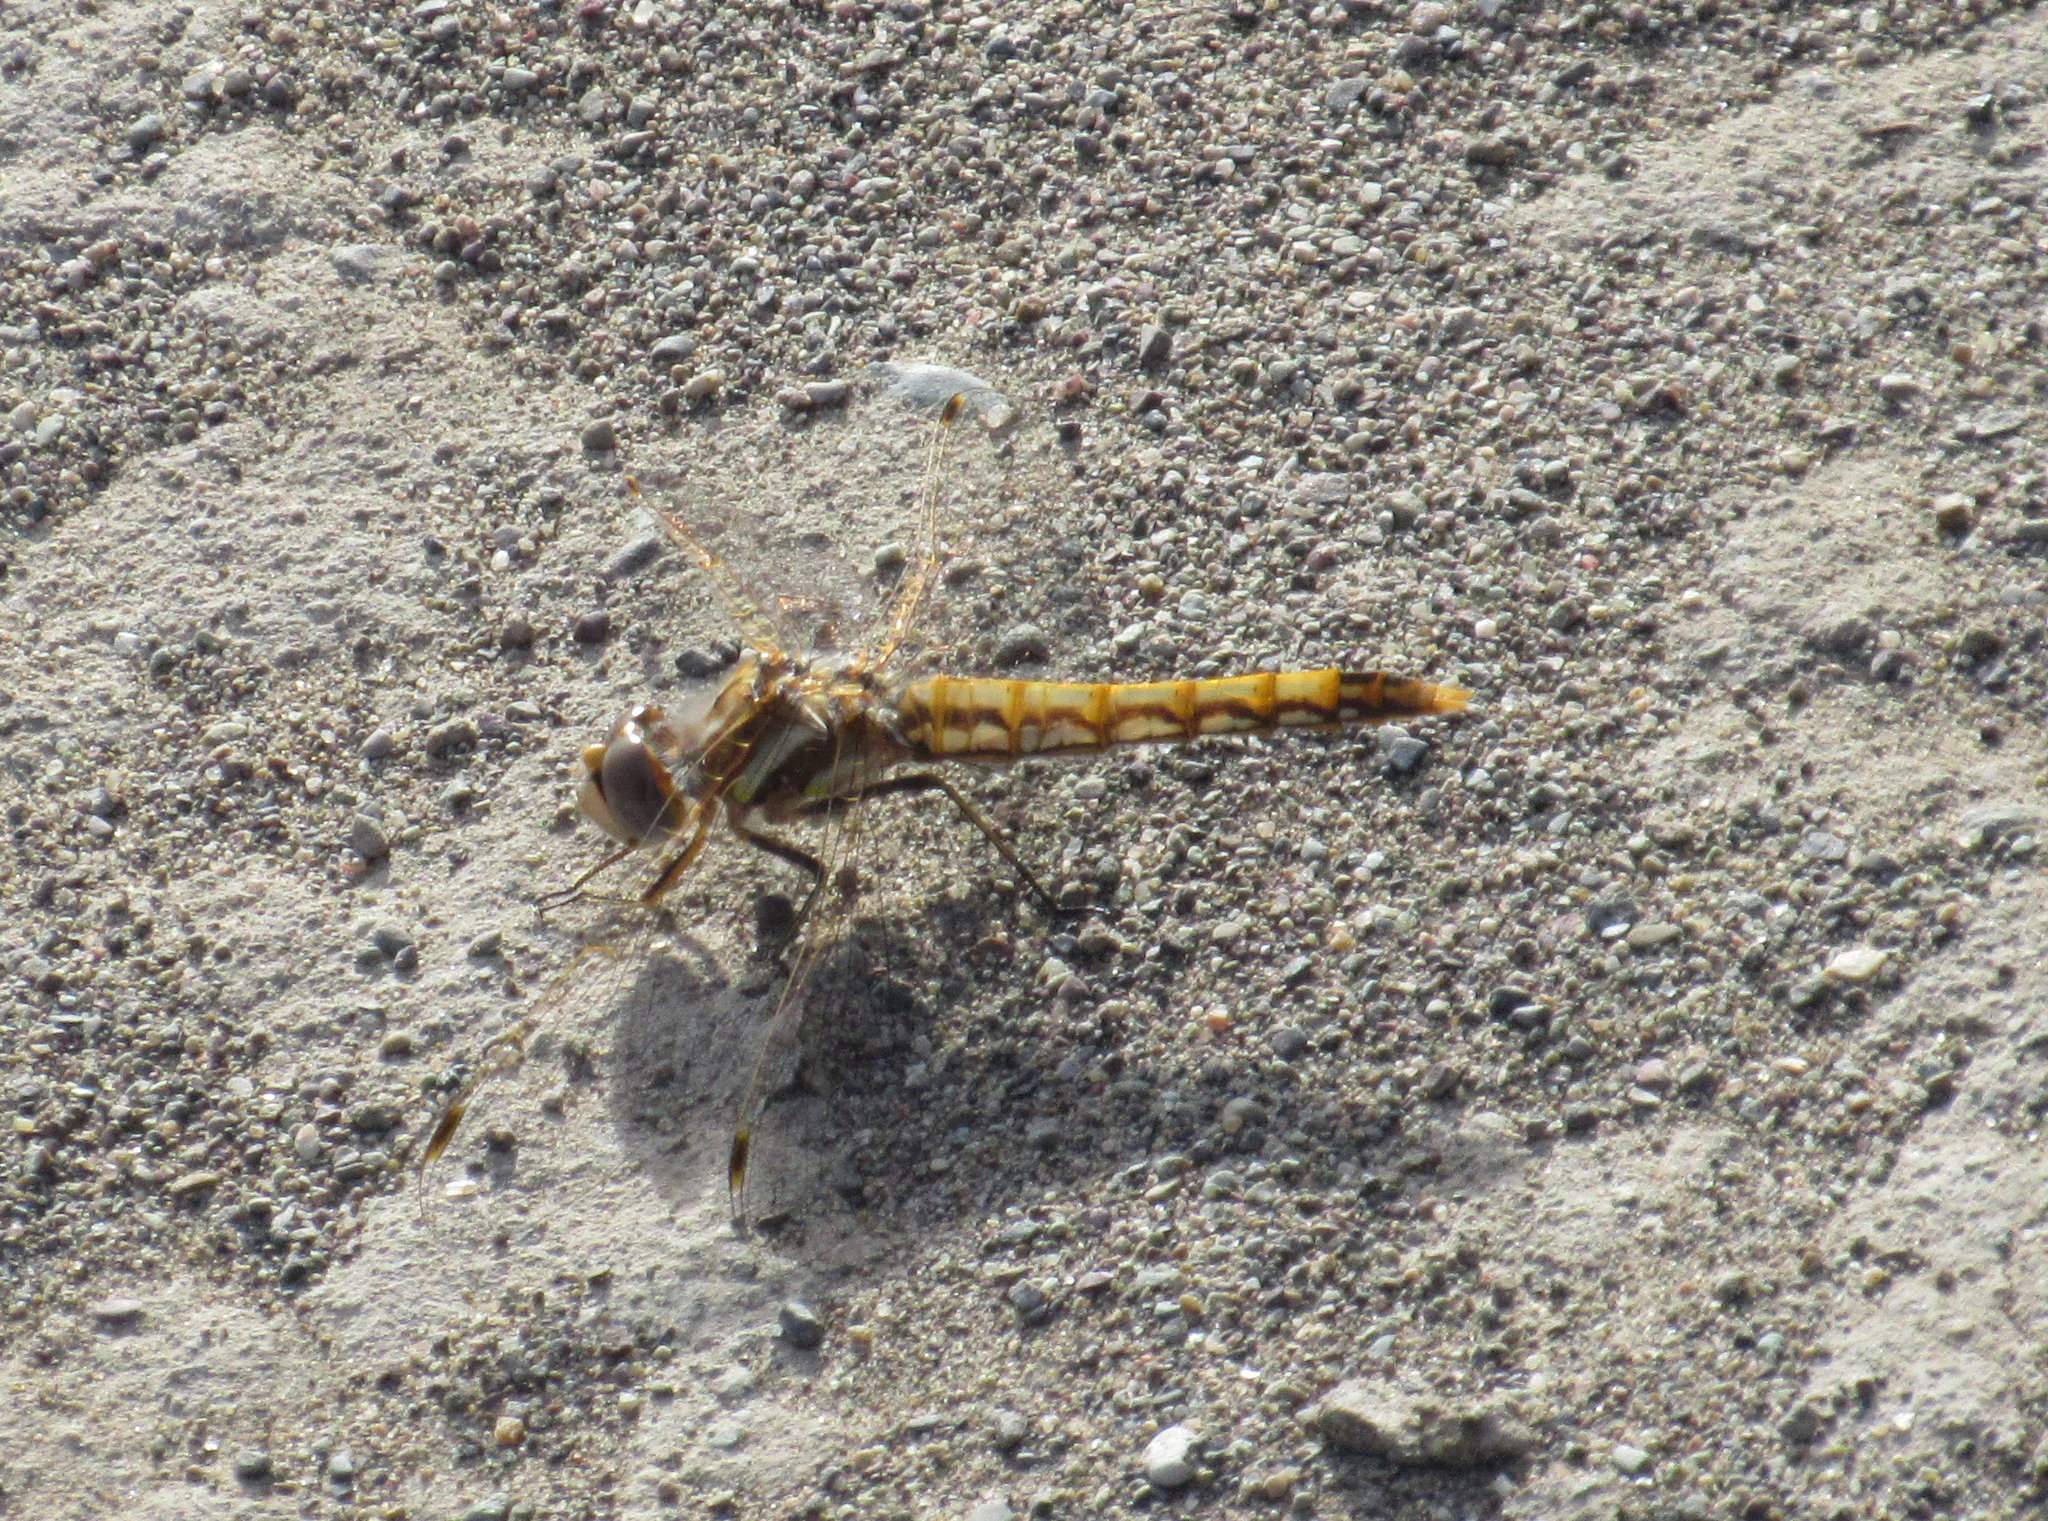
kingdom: Animalia
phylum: Arthropoda
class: Insecta
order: Odonata
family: Libellulidae
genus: Sympetrum
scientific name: Sympetrum corruptum
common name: Variegated meadowhawk
